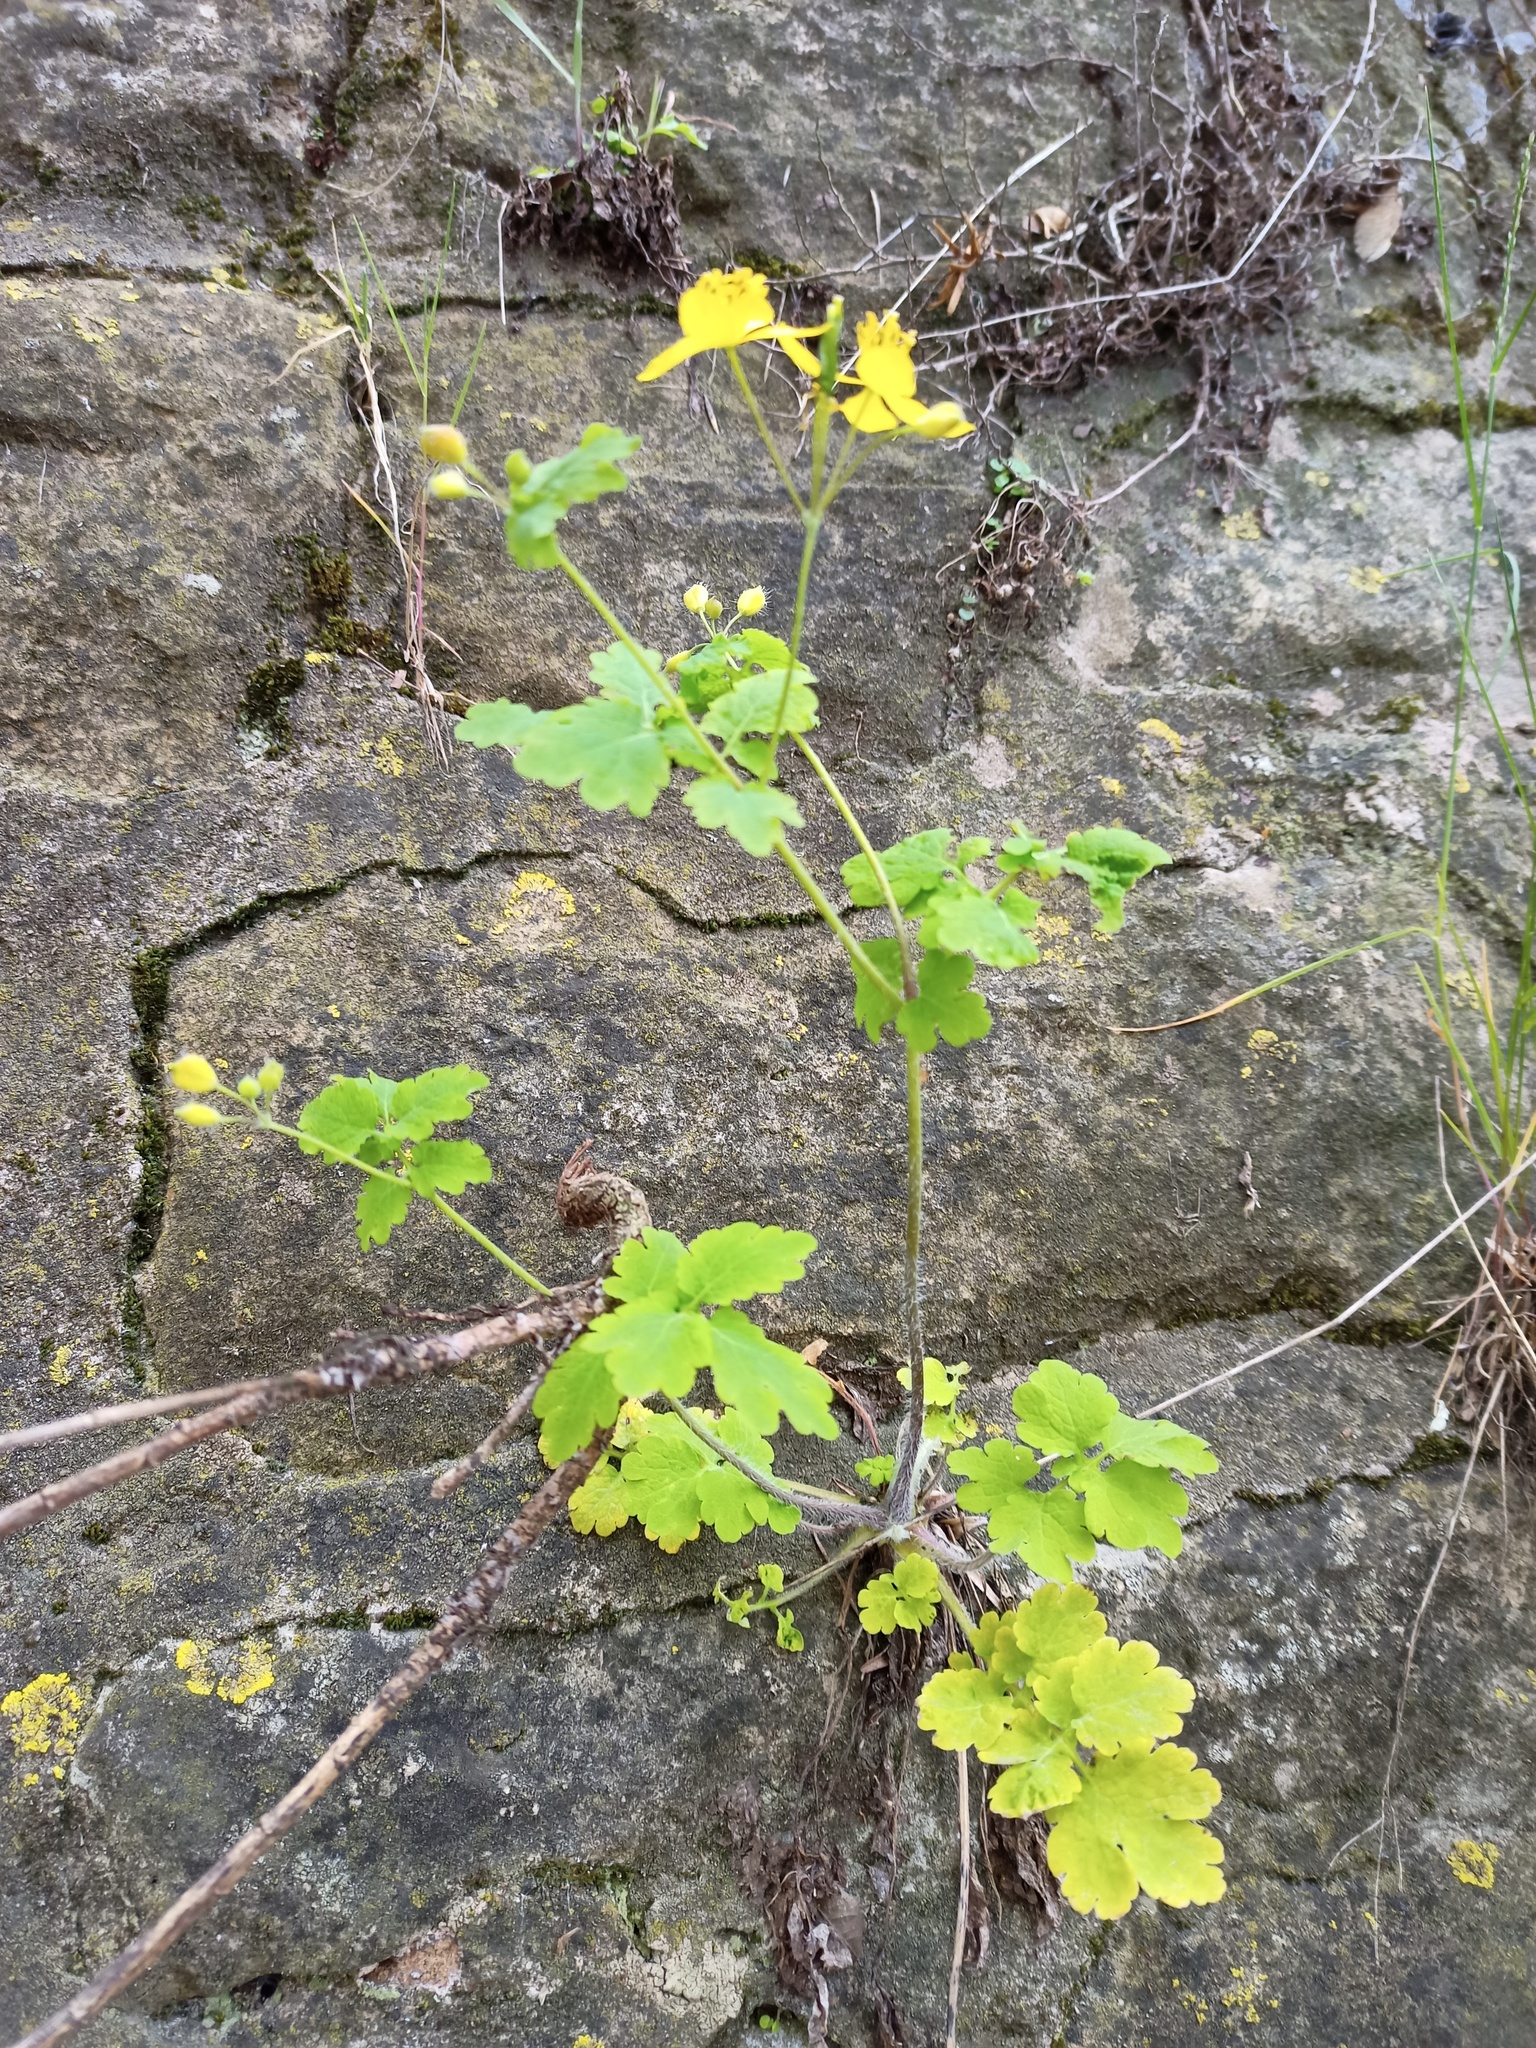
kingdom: Plantae
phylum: Tracheophyta
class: Magnoliopsida
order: Ranunculales
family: Papaveraceae
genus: Chelidonium
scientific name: Chelidonium majus
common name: Greater celandine
